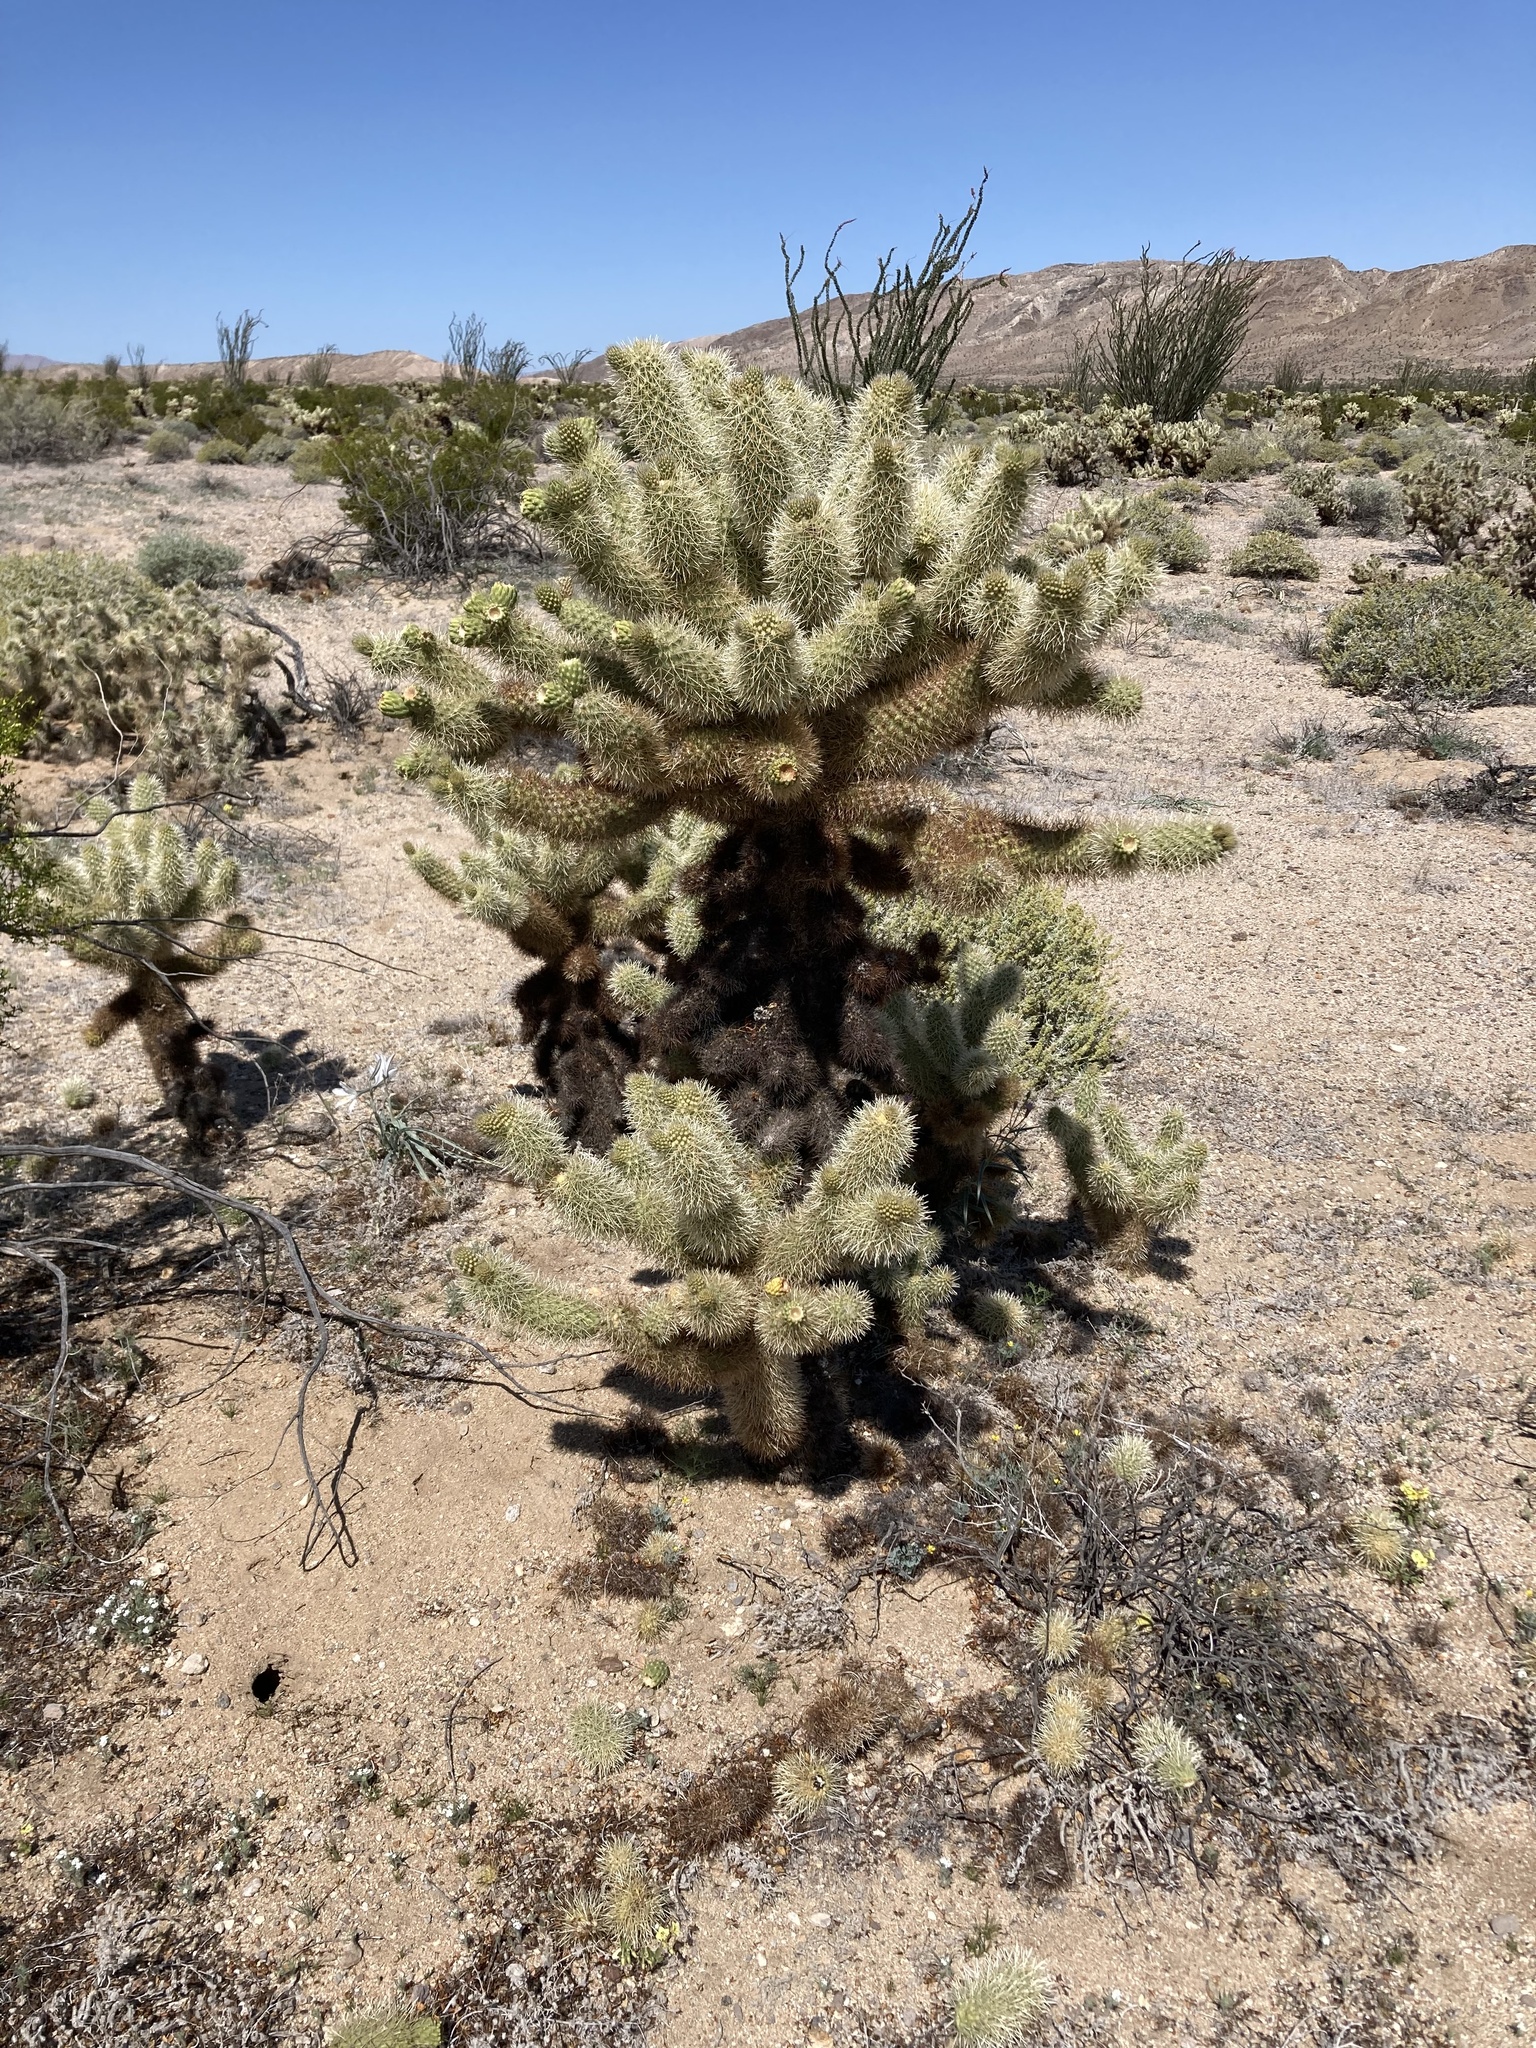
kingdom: Plantae
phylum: Tracheophyta
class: Magnoliopsida
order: Caryophyllales
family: Cactaceae
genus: Cylindropuntia
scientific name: Cylindropuntia fosbergii
